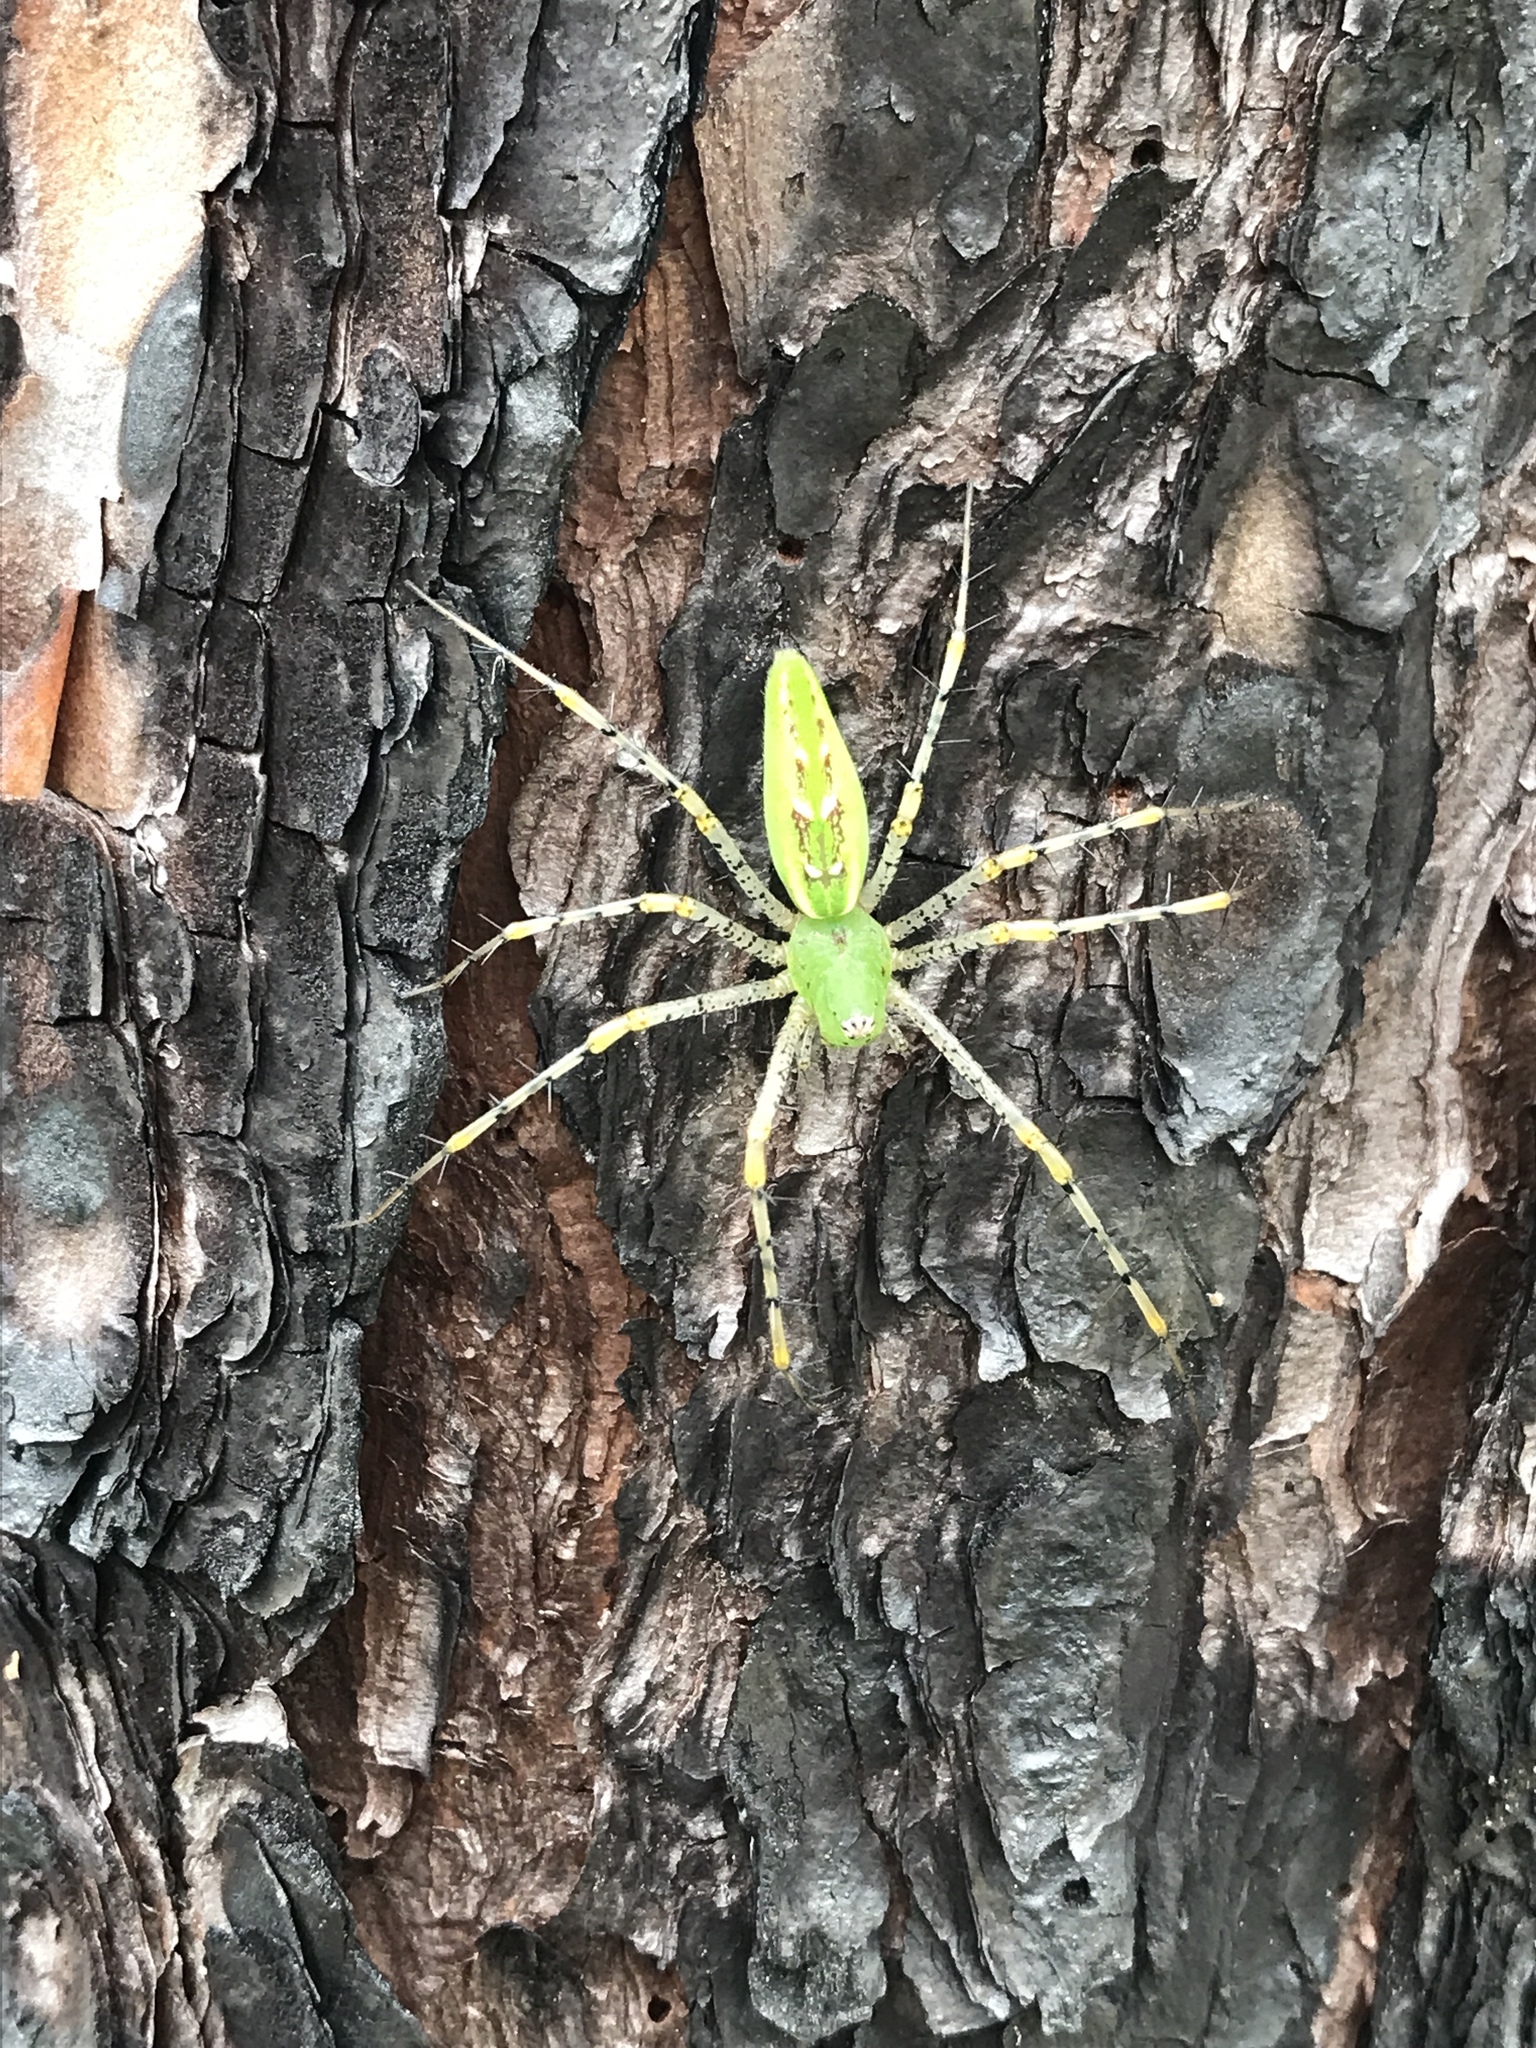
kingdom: Animalia
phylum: Arthropoda
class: Arachnida
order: Araneae
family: Oxyopidae
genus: Peucetia
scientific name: Peucetia viridans
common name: Lynx spiders
